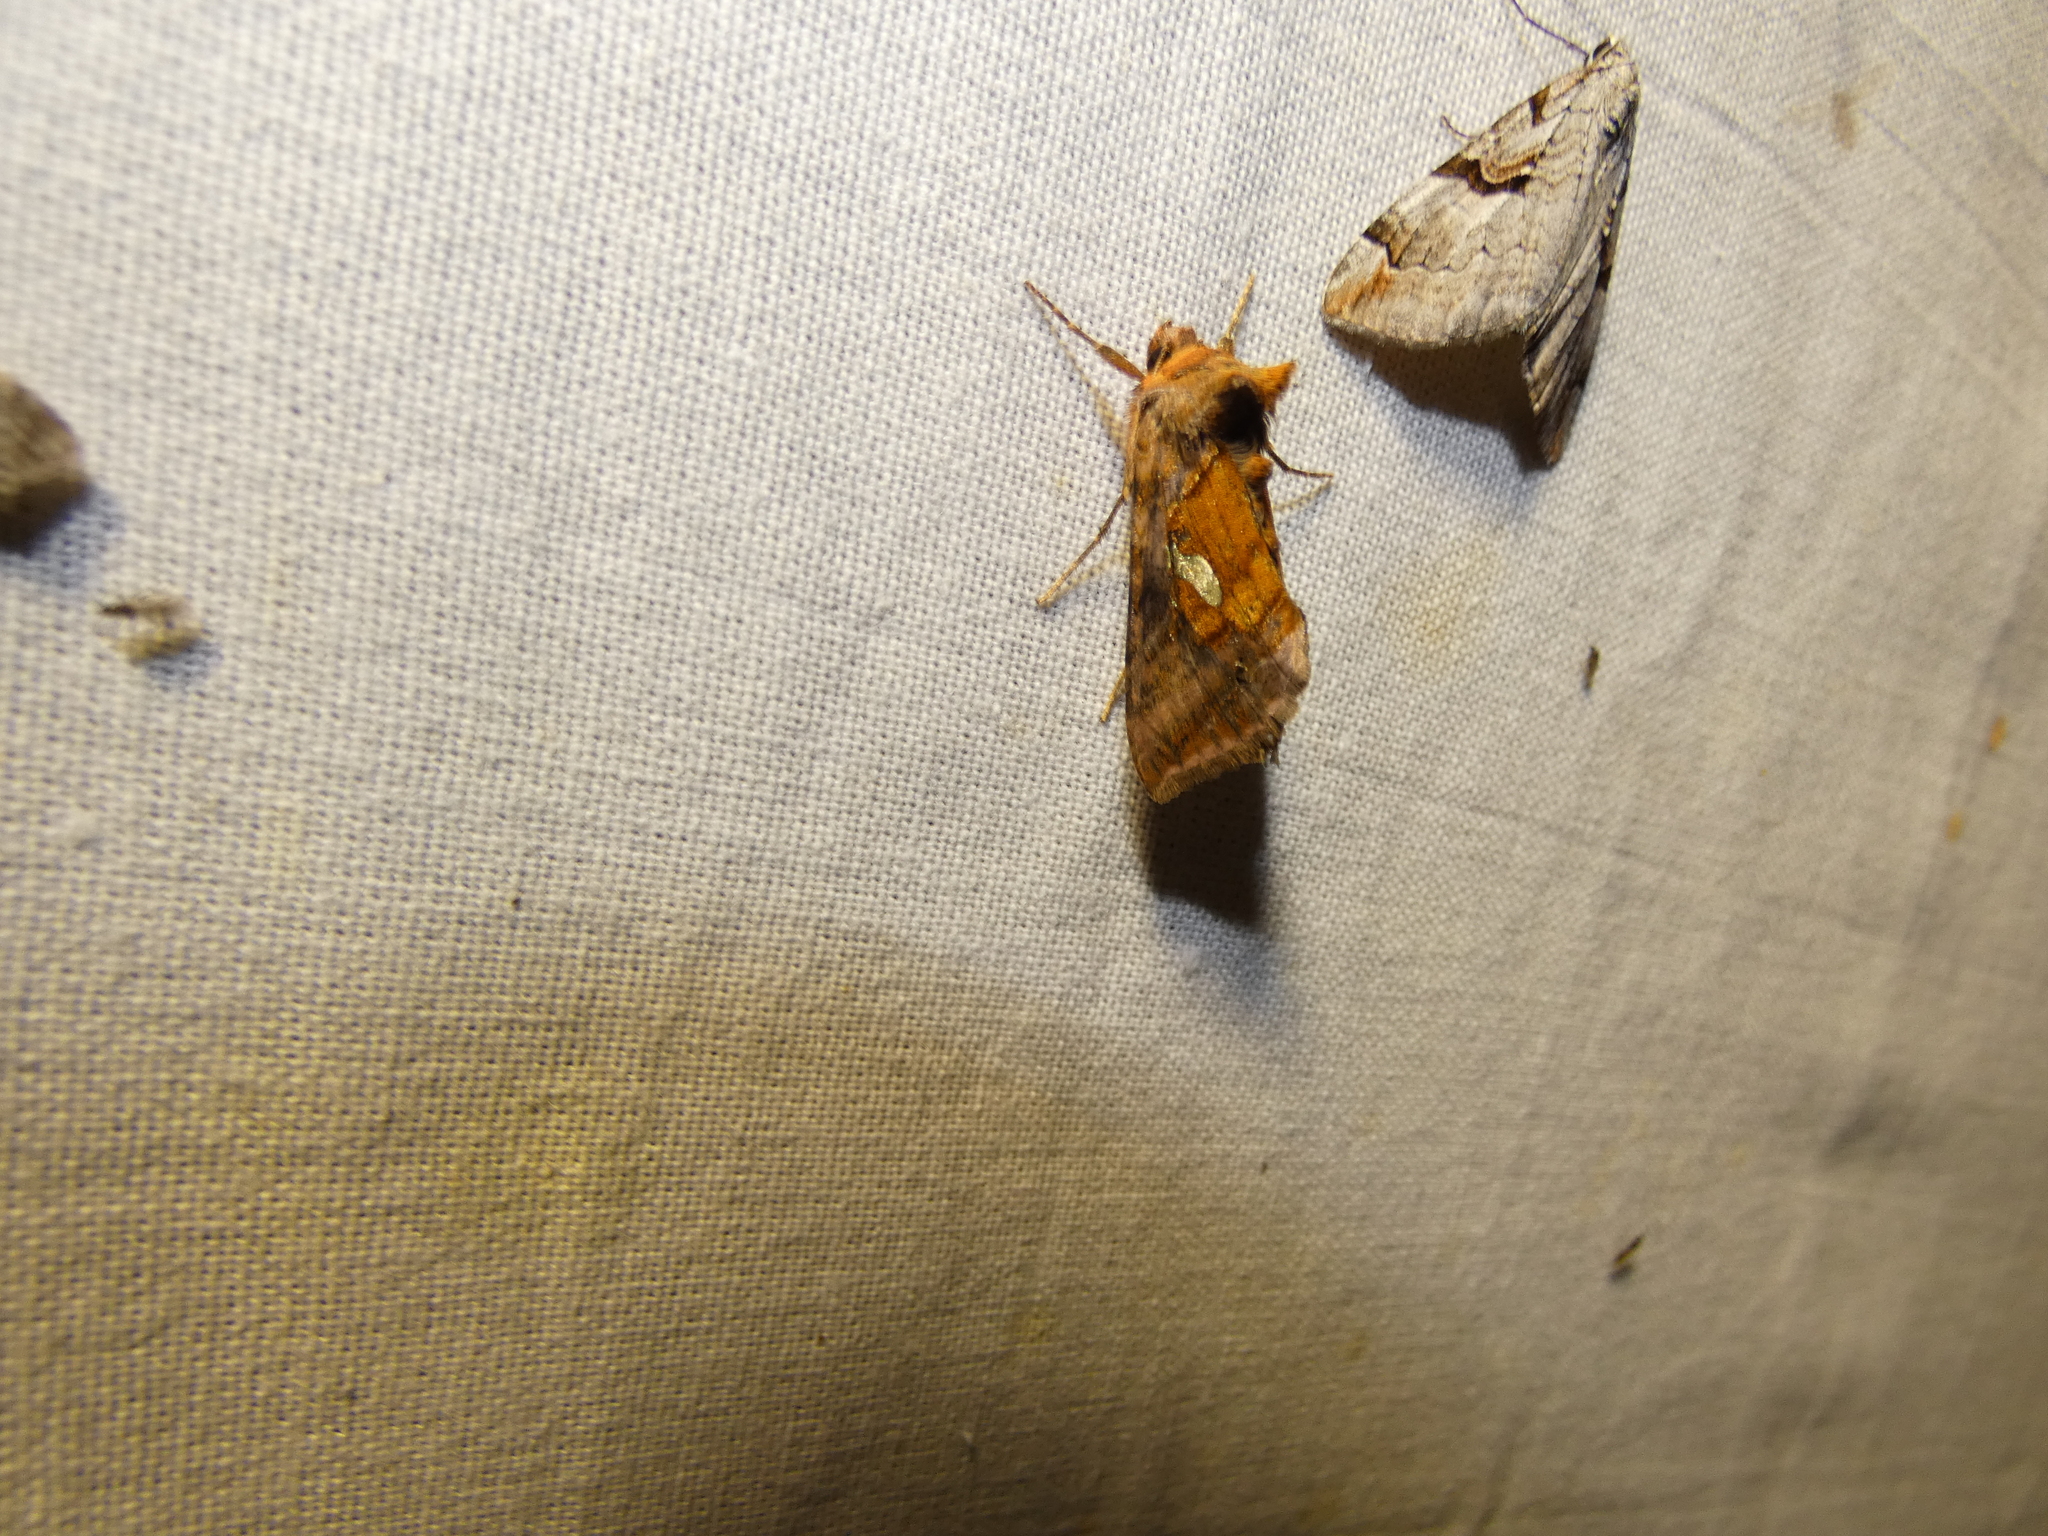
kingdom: Animalia
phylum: Arthropoda
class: Insecta
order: Lepidoptera
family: Noctuidae
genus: Autographa
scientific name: Autographa excelsa
